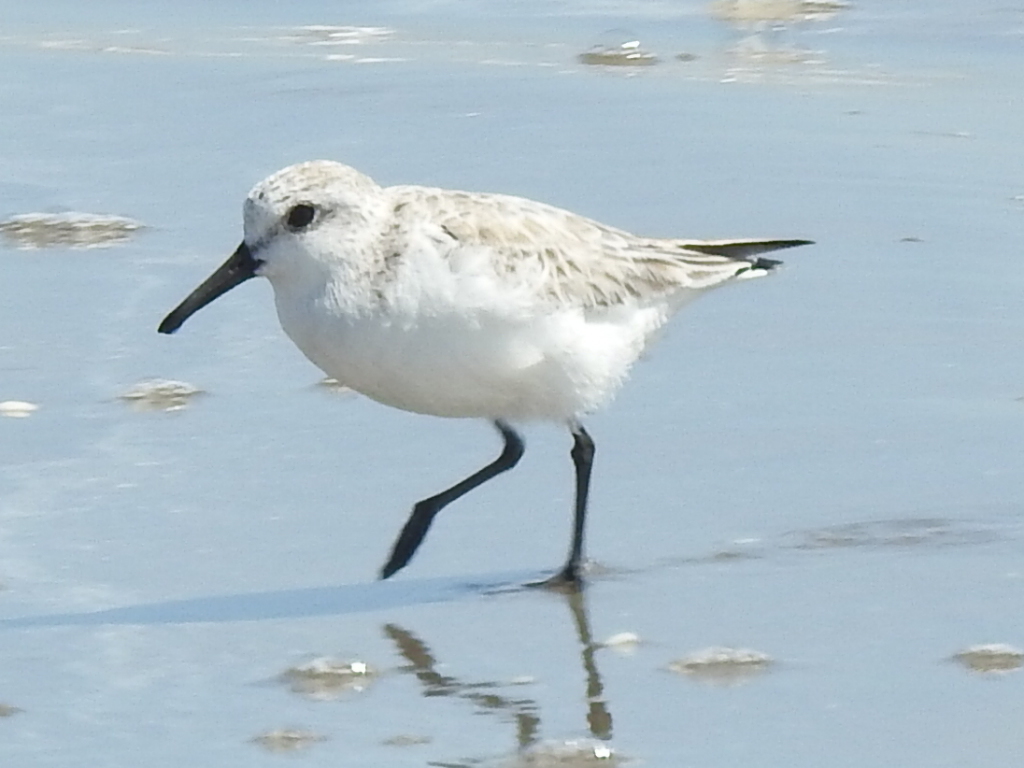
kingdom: Animalia
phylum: Chordata
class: Aves
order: Charadriiformes
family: Scolopacidae
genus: Calidris
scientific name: Calidris alba
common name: Sanderling
